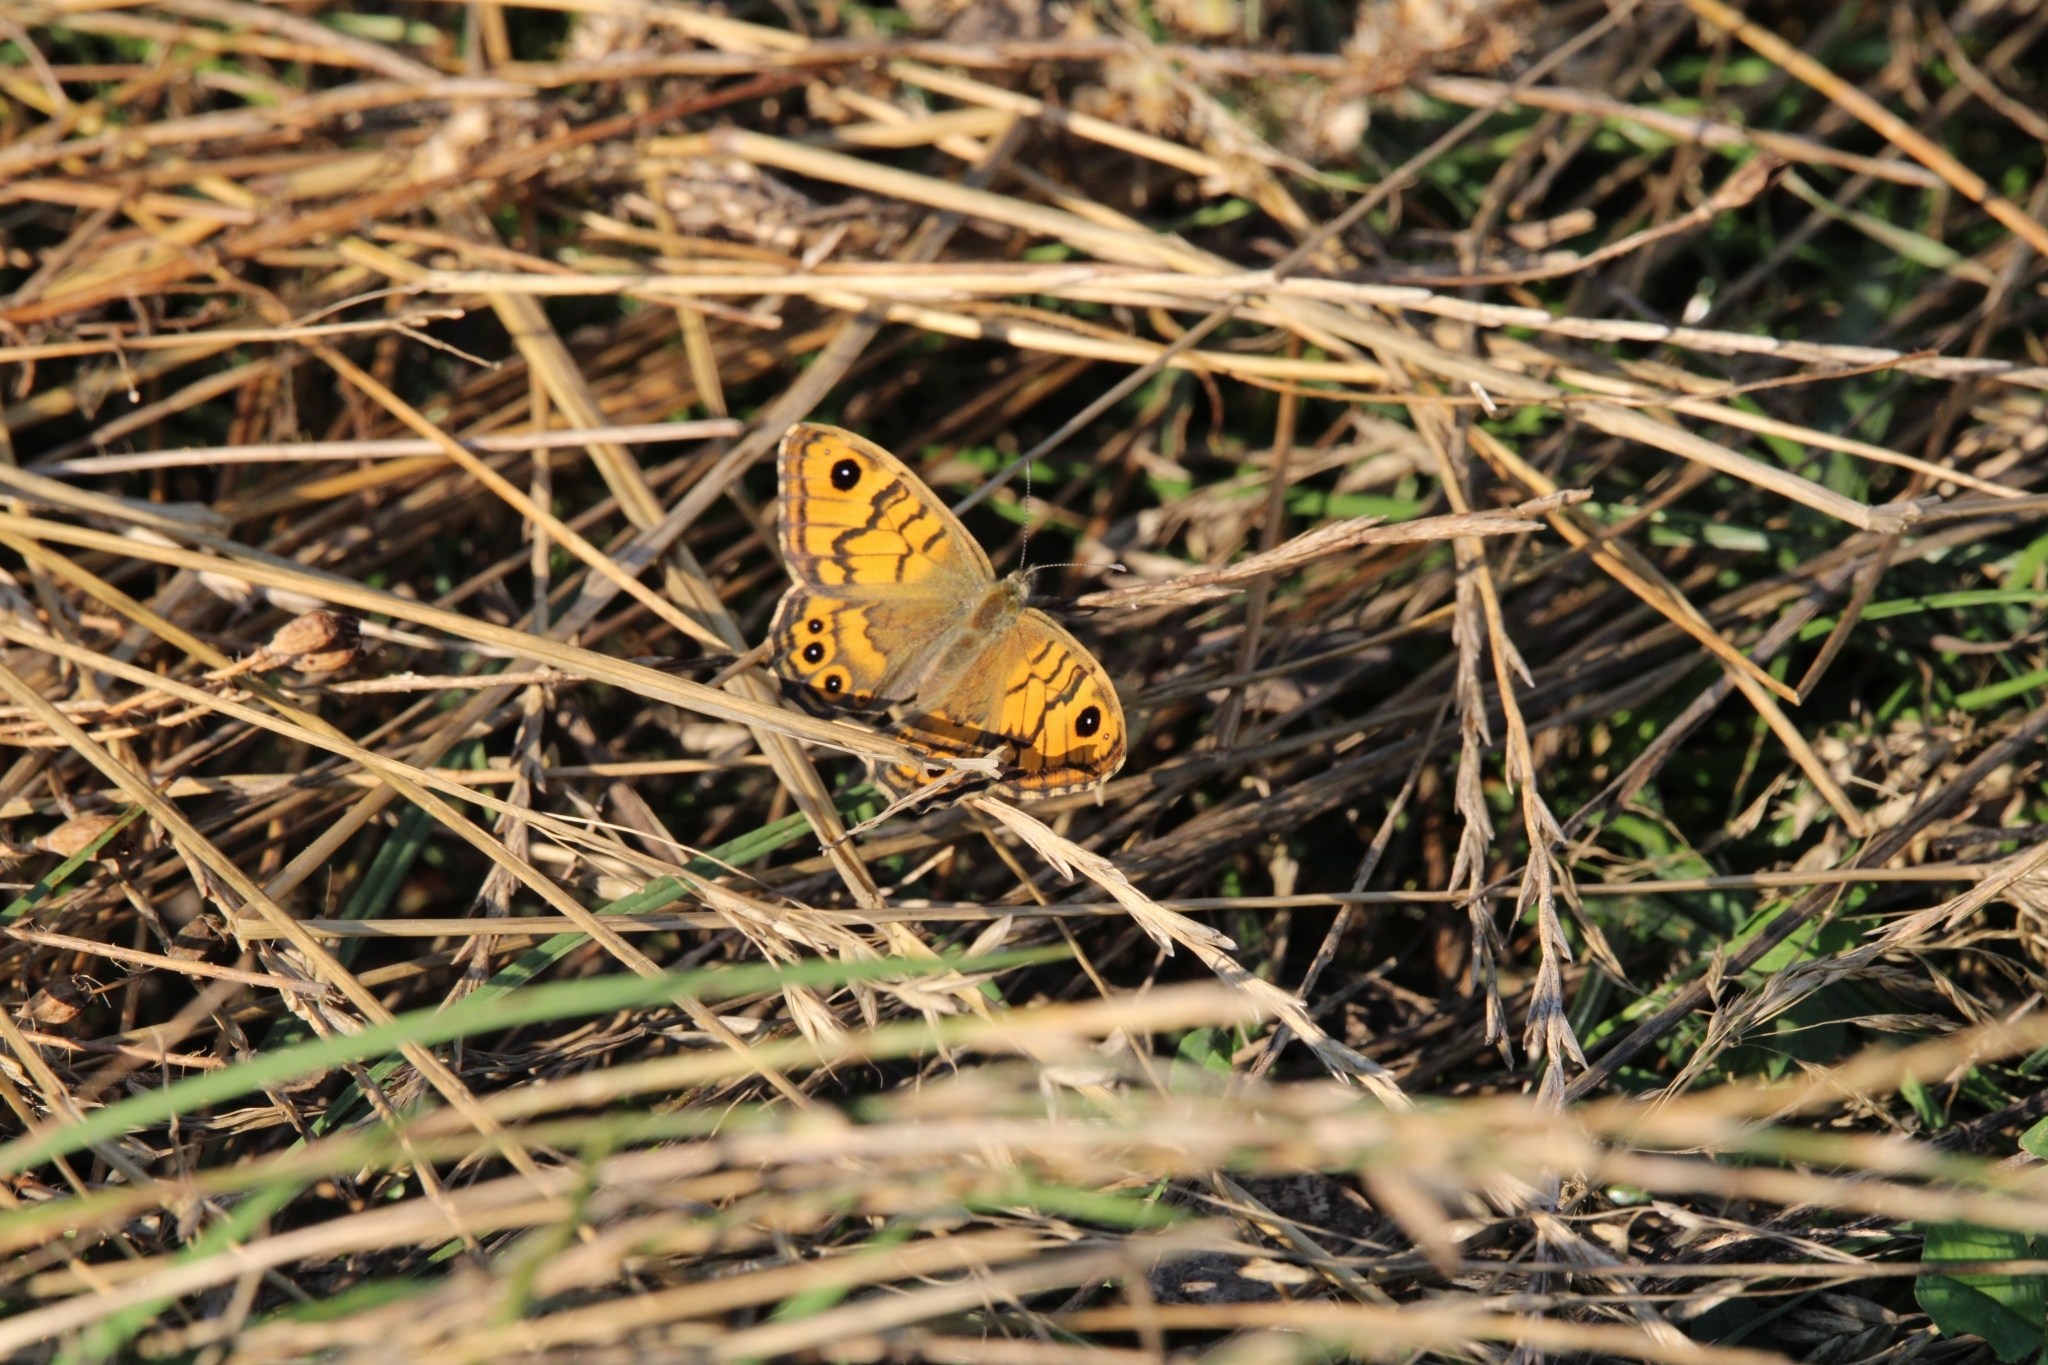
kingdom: Animalia
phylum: Arthropoda
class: Insecta
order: Lepidoptera
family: Nymphalidae
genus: Pararge
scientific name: Pararge Lasiommata megera
